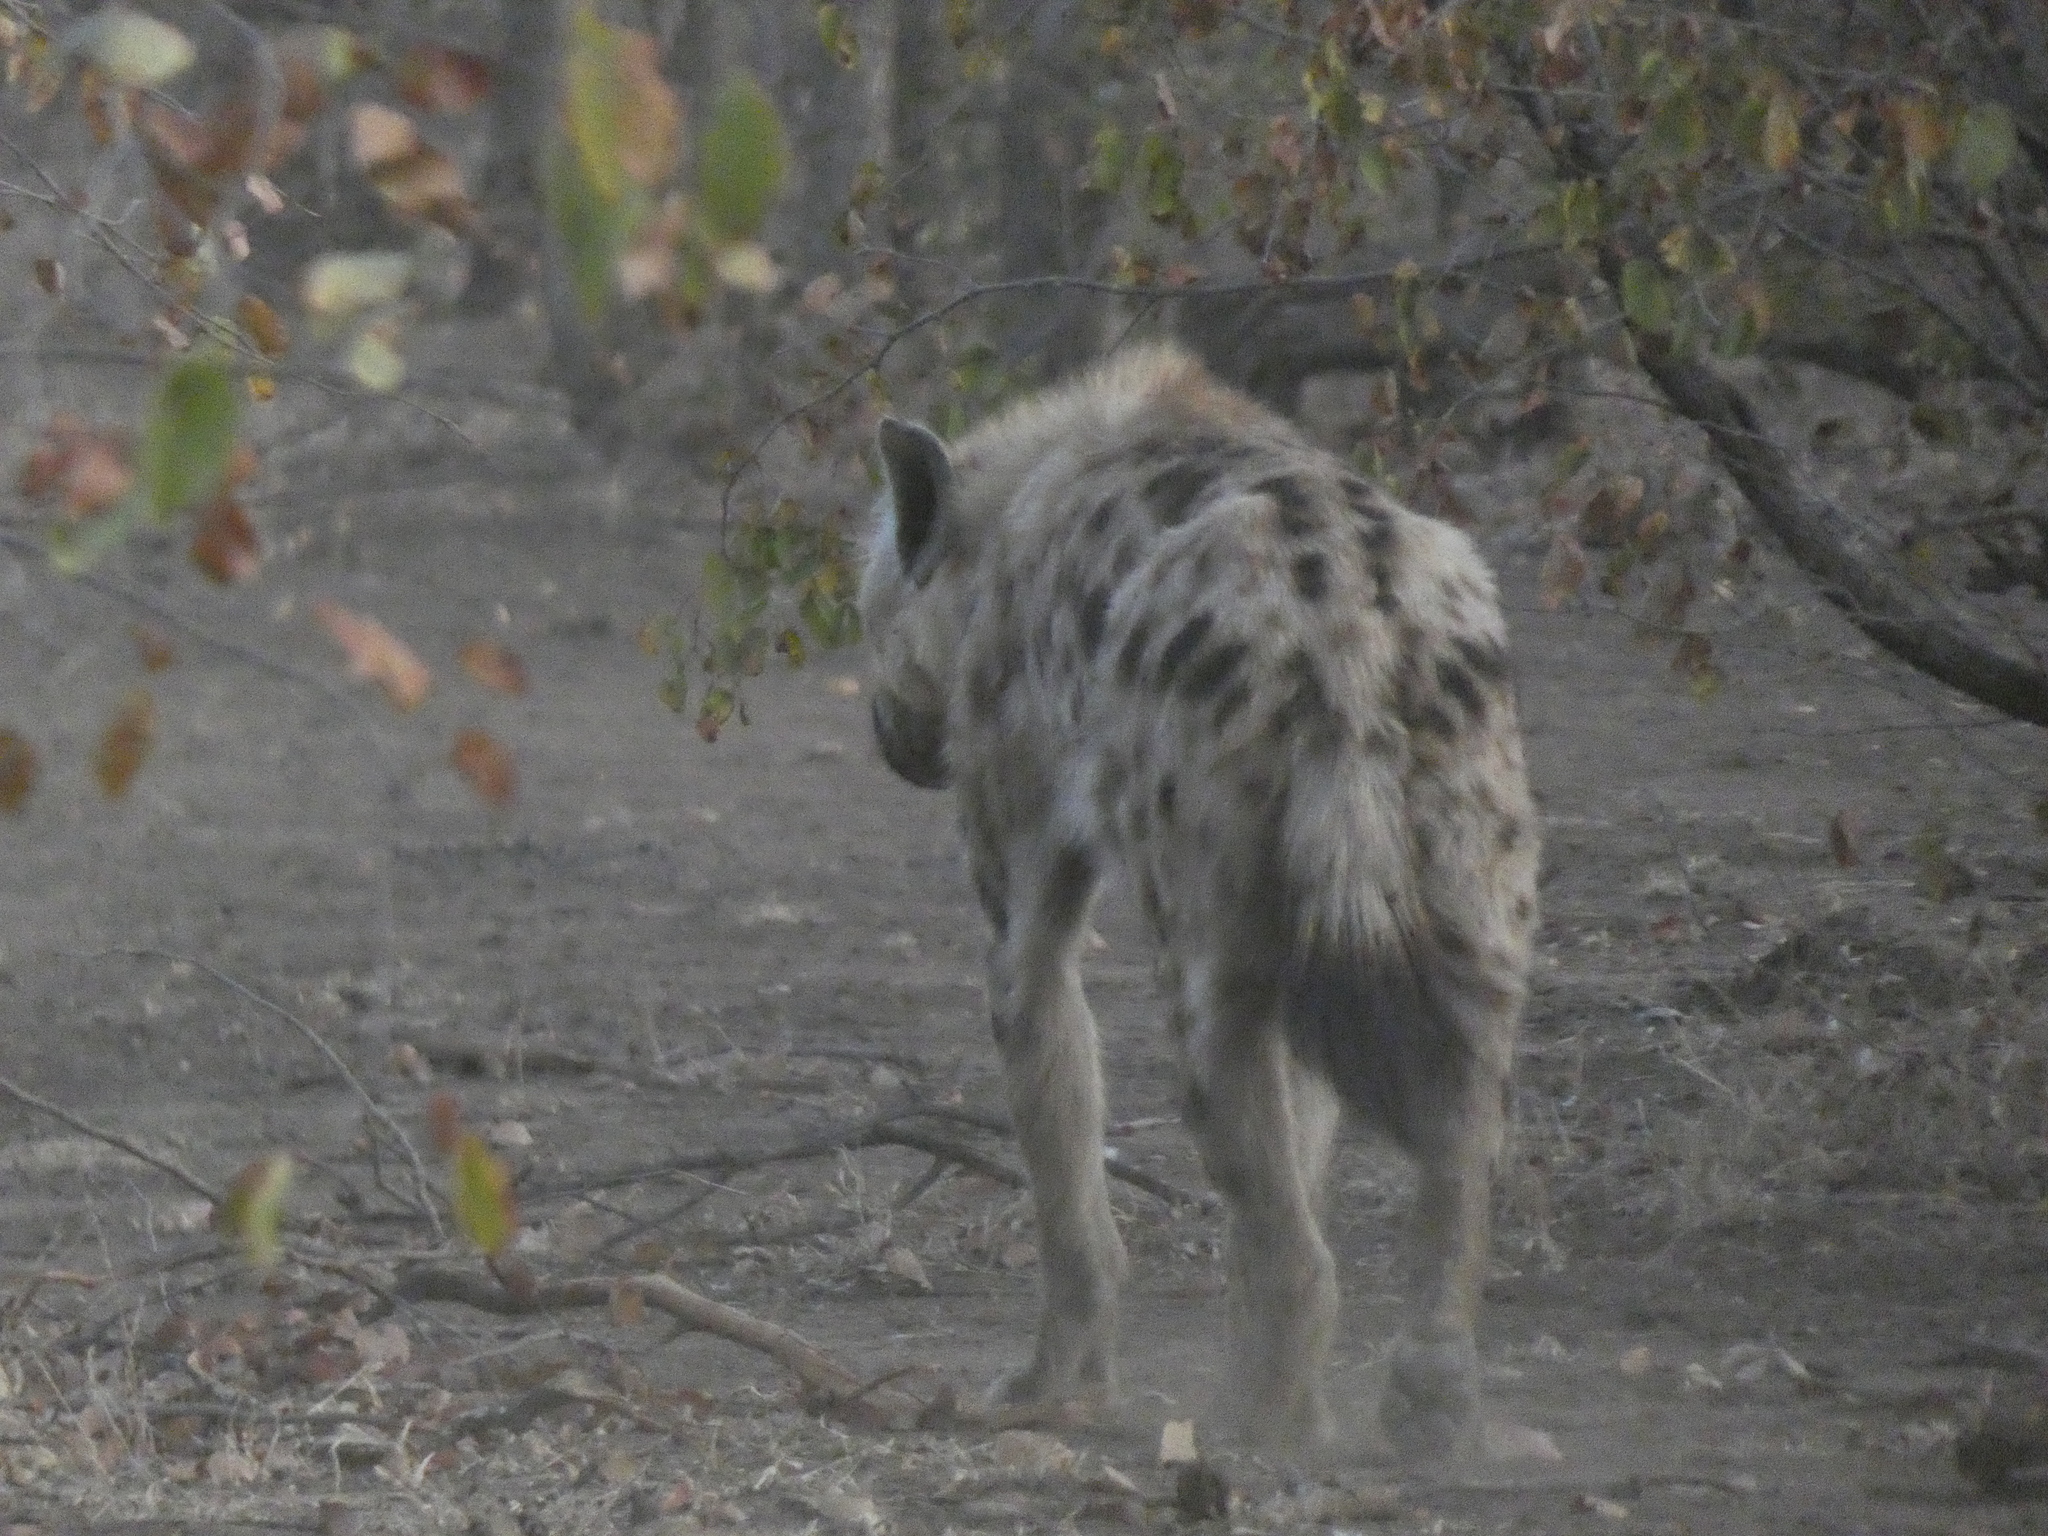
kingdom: Animalia
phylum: Chordata
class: Mammalia
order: Carnivora
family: Hyaenidae
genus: Crocuta
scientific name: Crocuta crocuta
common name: Spotted hyaena
